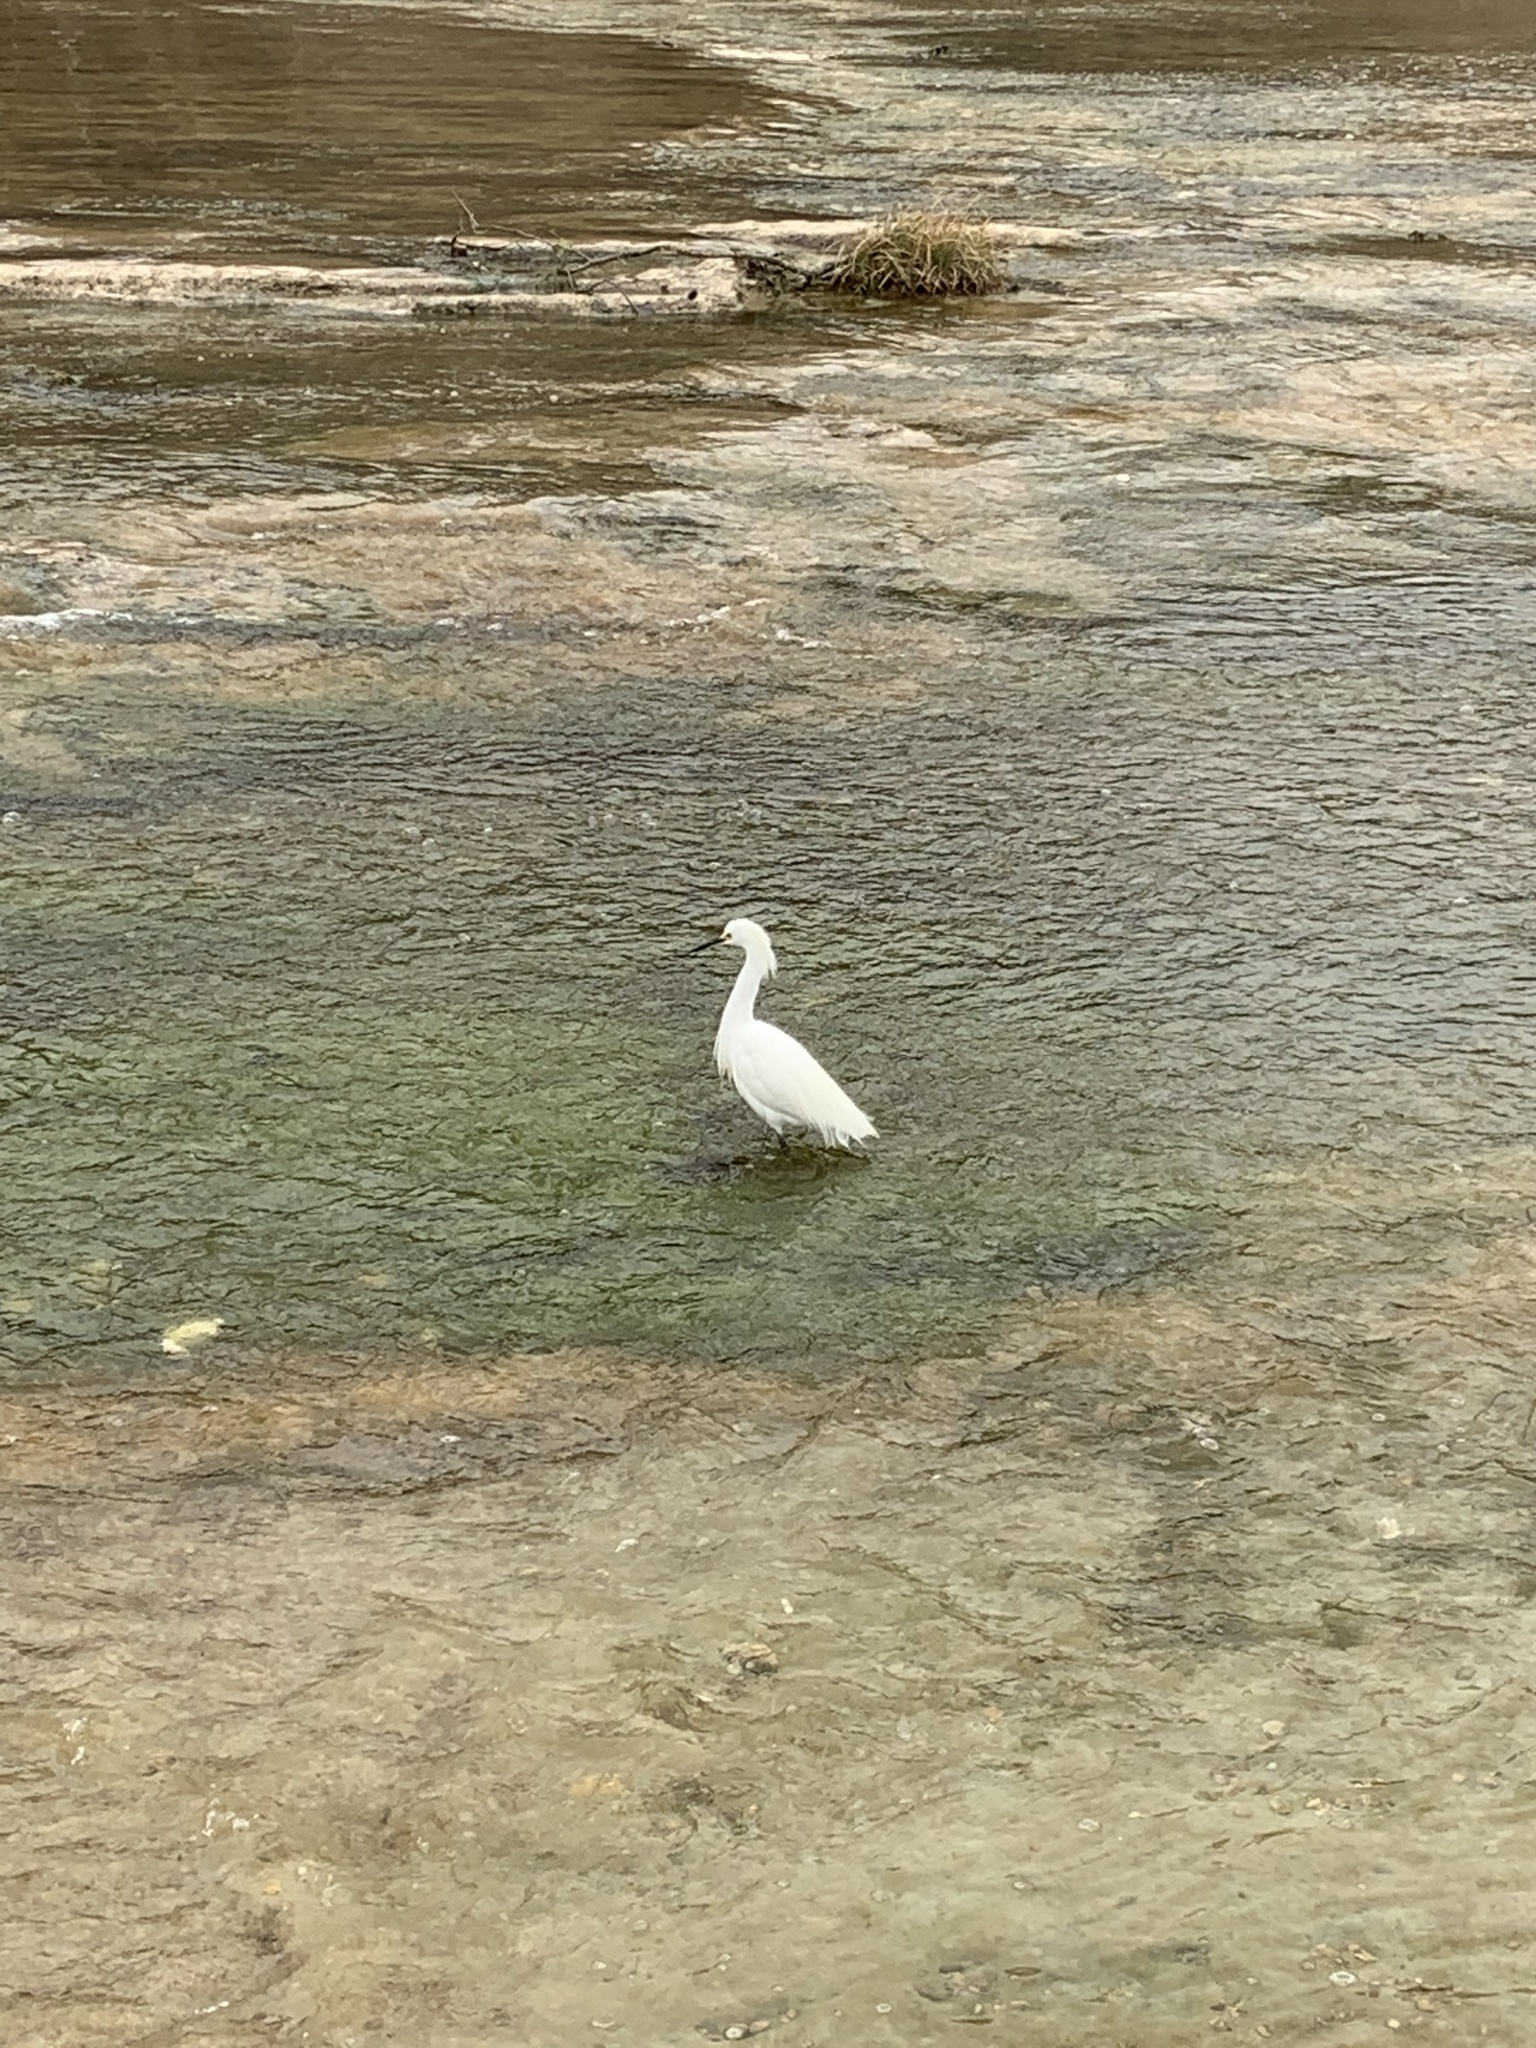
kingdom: Animalia
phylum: Chordata
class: Aves
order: Pelecaniformes
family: Ardeidae
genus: Egretta
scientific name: Egretta thula
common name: Snowy egret
